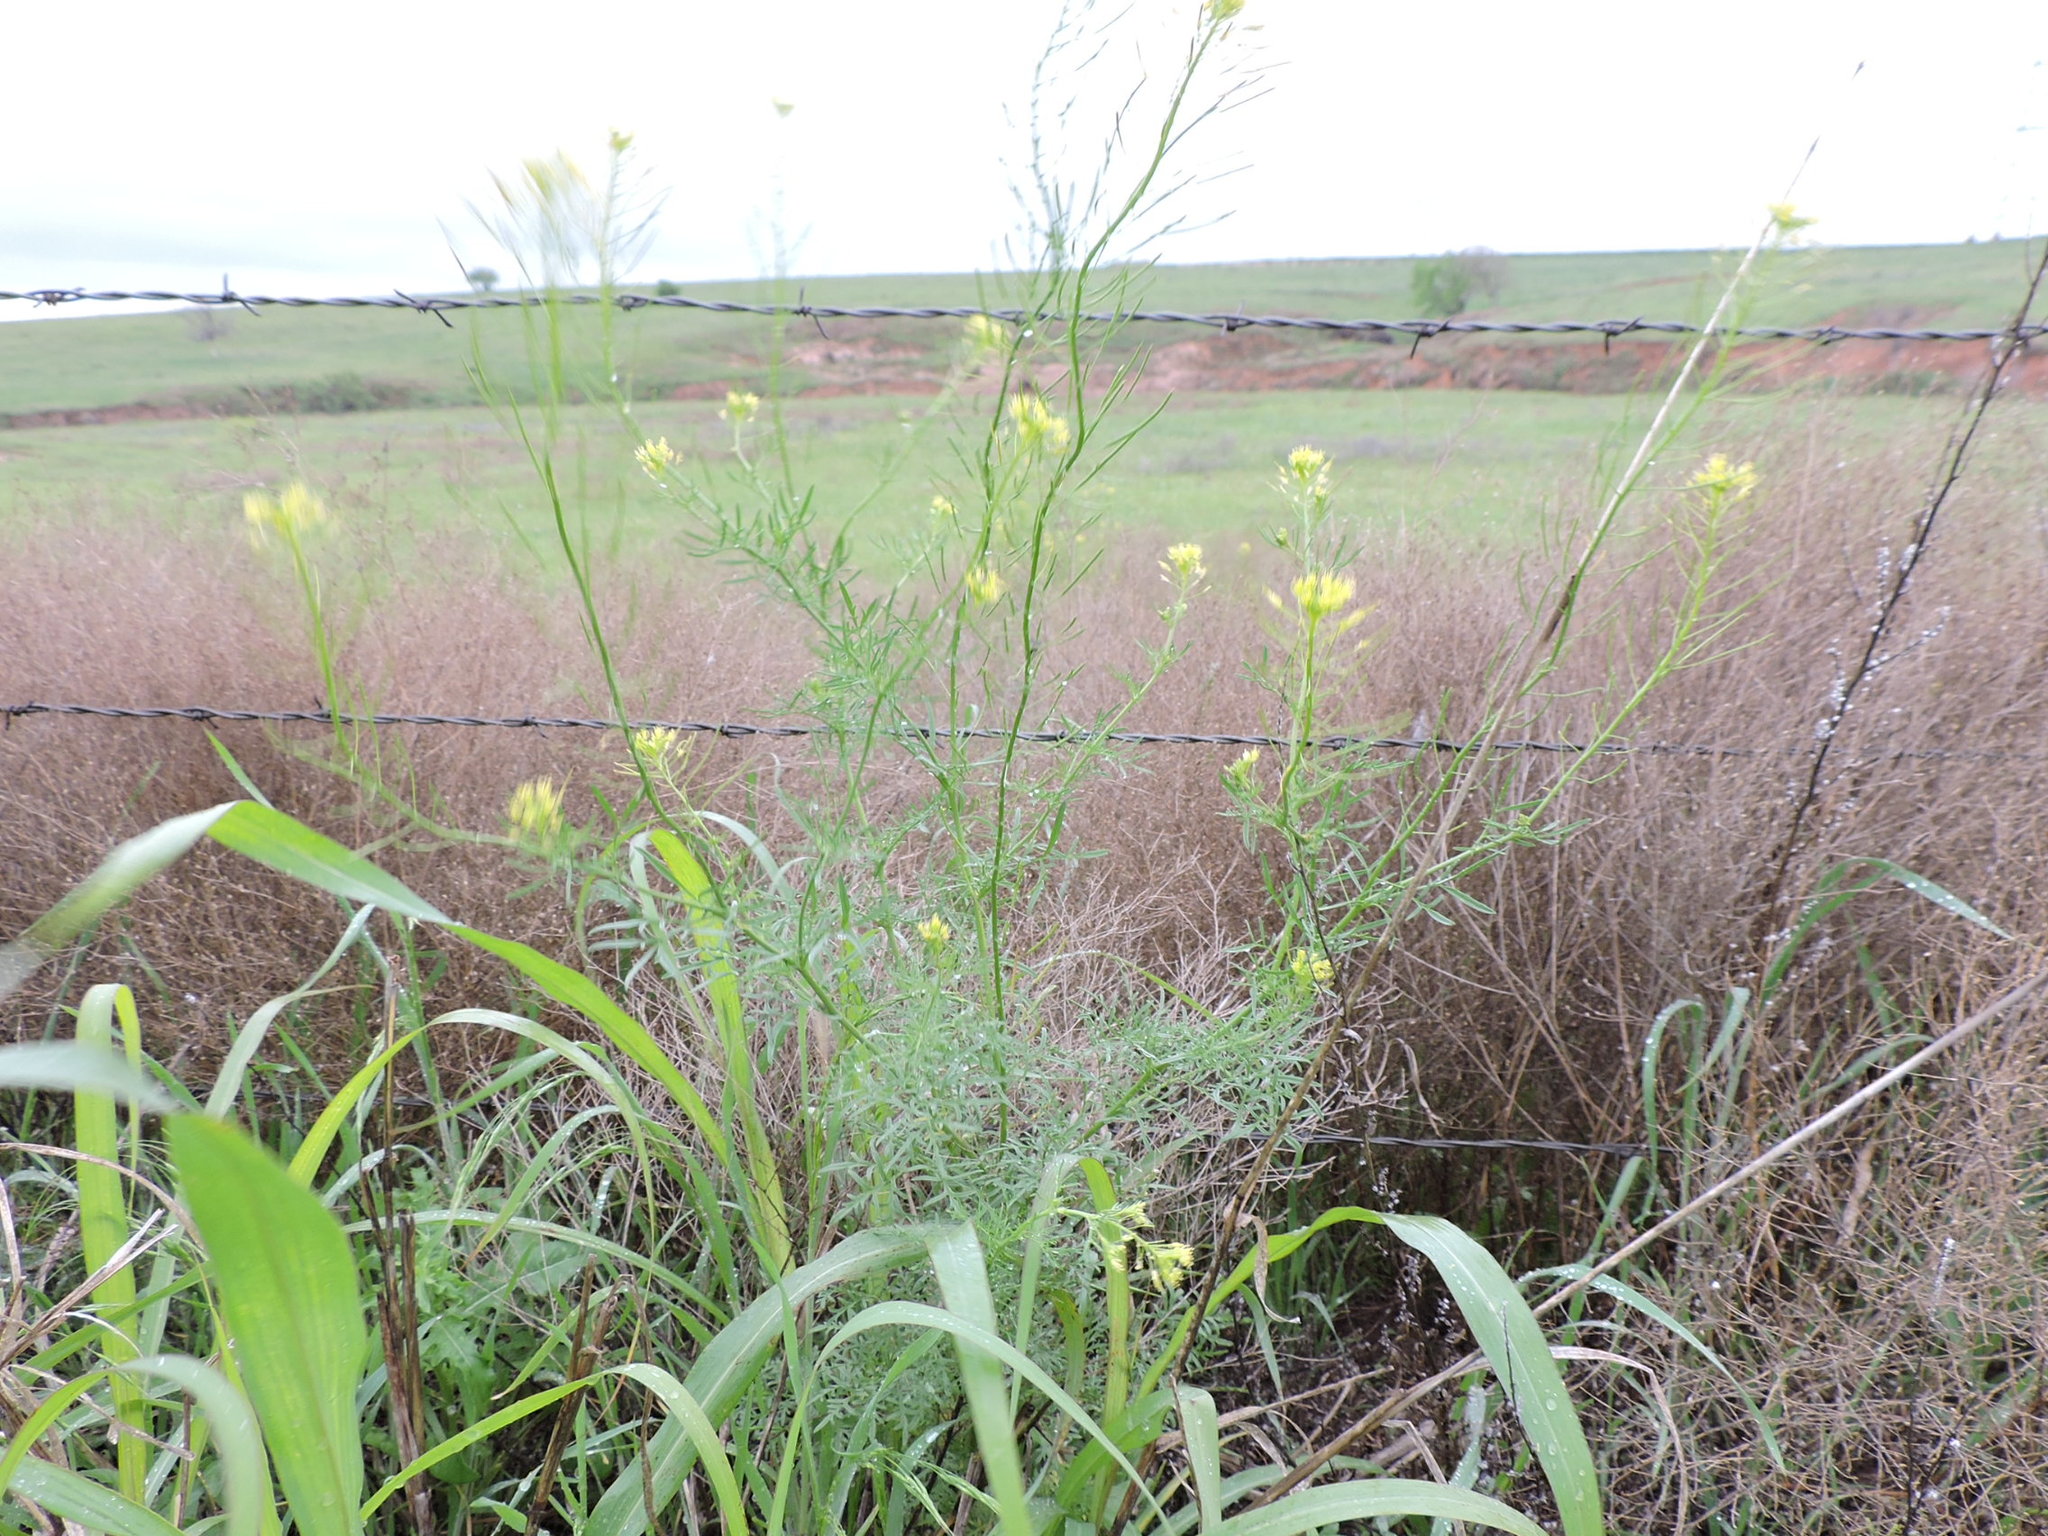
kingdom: Plantae
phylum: Tracheophyta
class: Magnoliopsida
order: Brassicales
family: Brassicaceae
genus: Descurainia
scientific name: Descurainia sophia
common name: Flixweed
